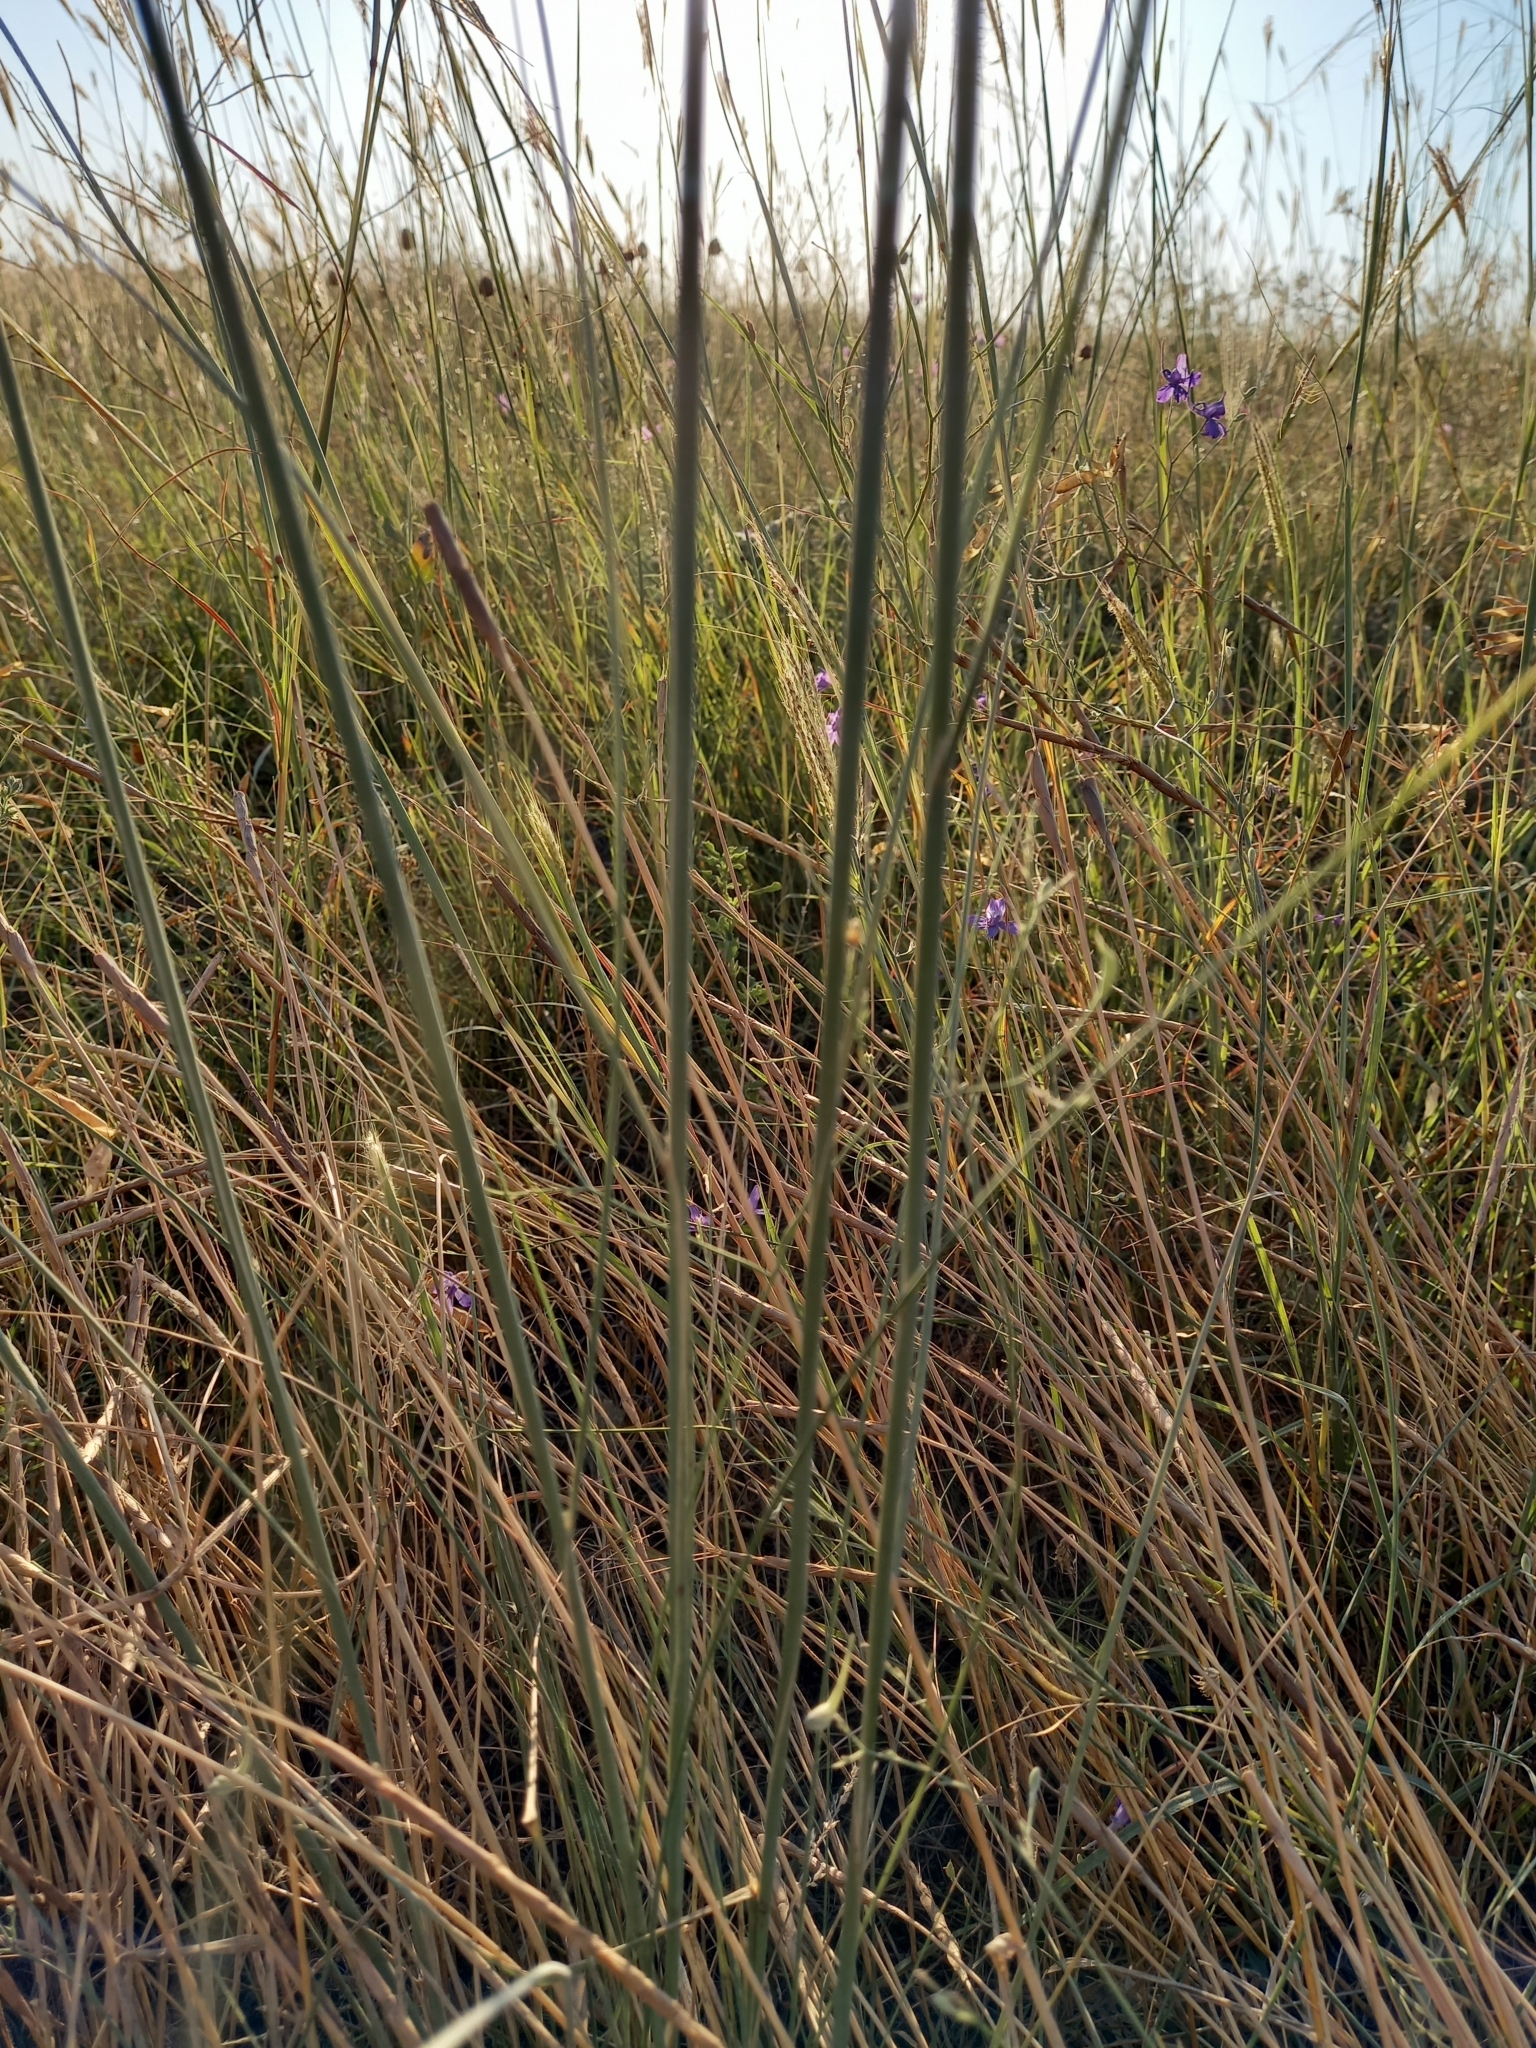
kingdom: Plantae
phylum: Tracheophyta
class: Liliopsida
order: Poales
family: Poaceae
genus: Stipa
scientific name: Stipa capillata
